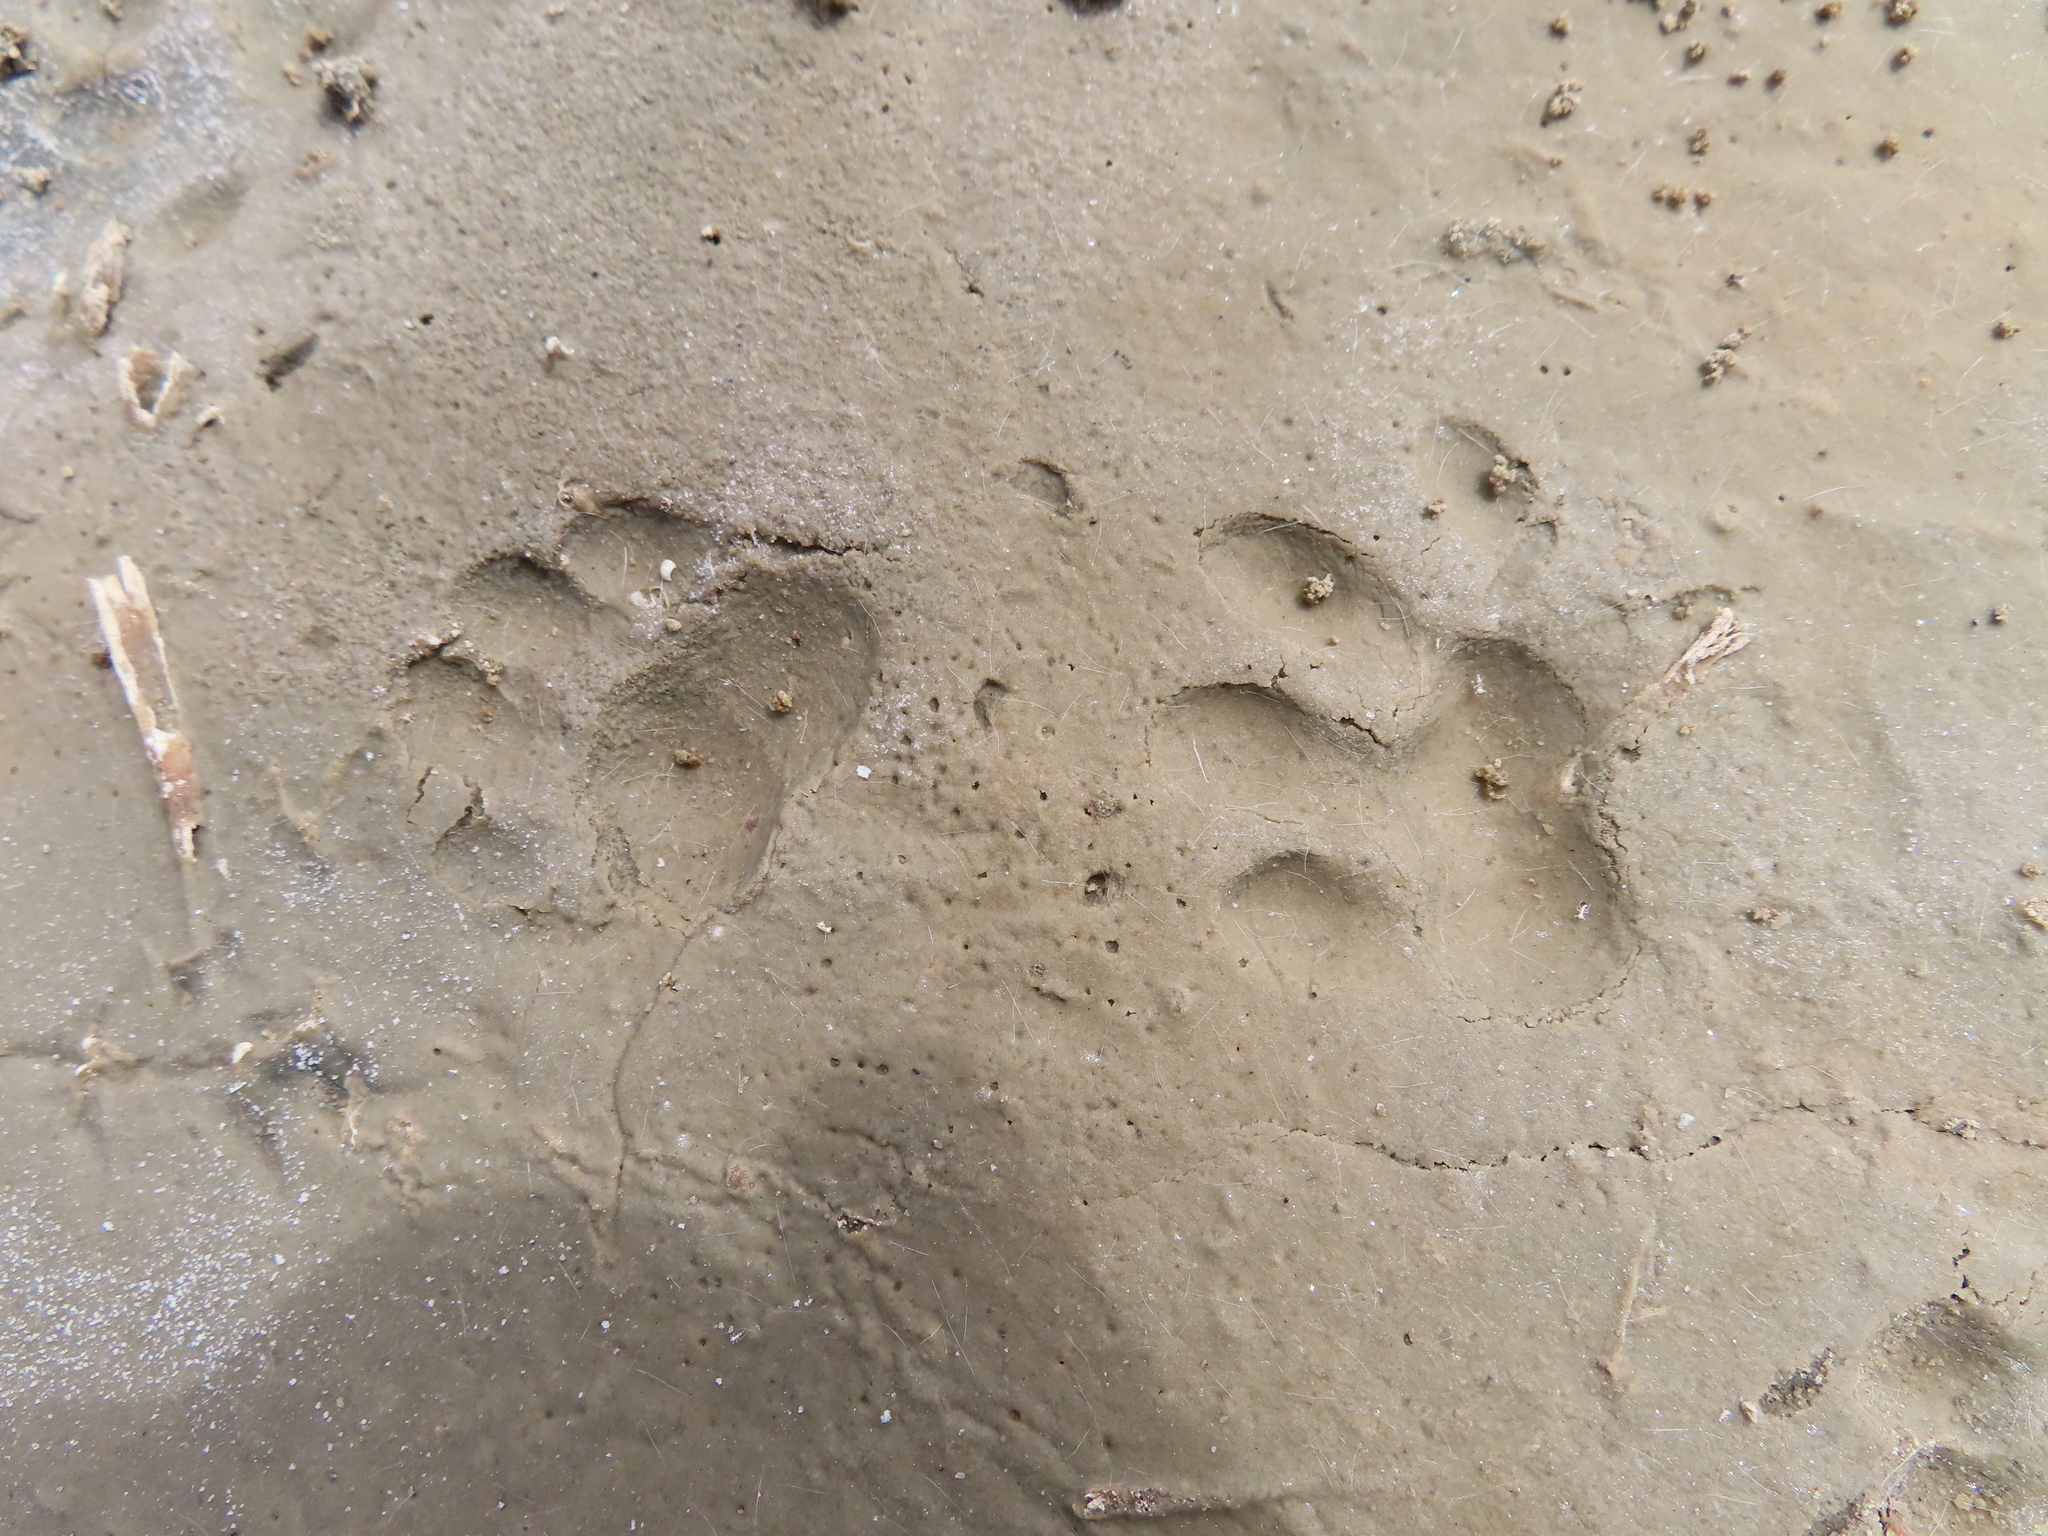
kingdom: Animalia
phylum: Chordata
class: Mammalia
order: Rodentia
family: Hystricidae
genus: Hystrix
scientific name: Hystrix africaeaustralis
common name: Cape porcupine
